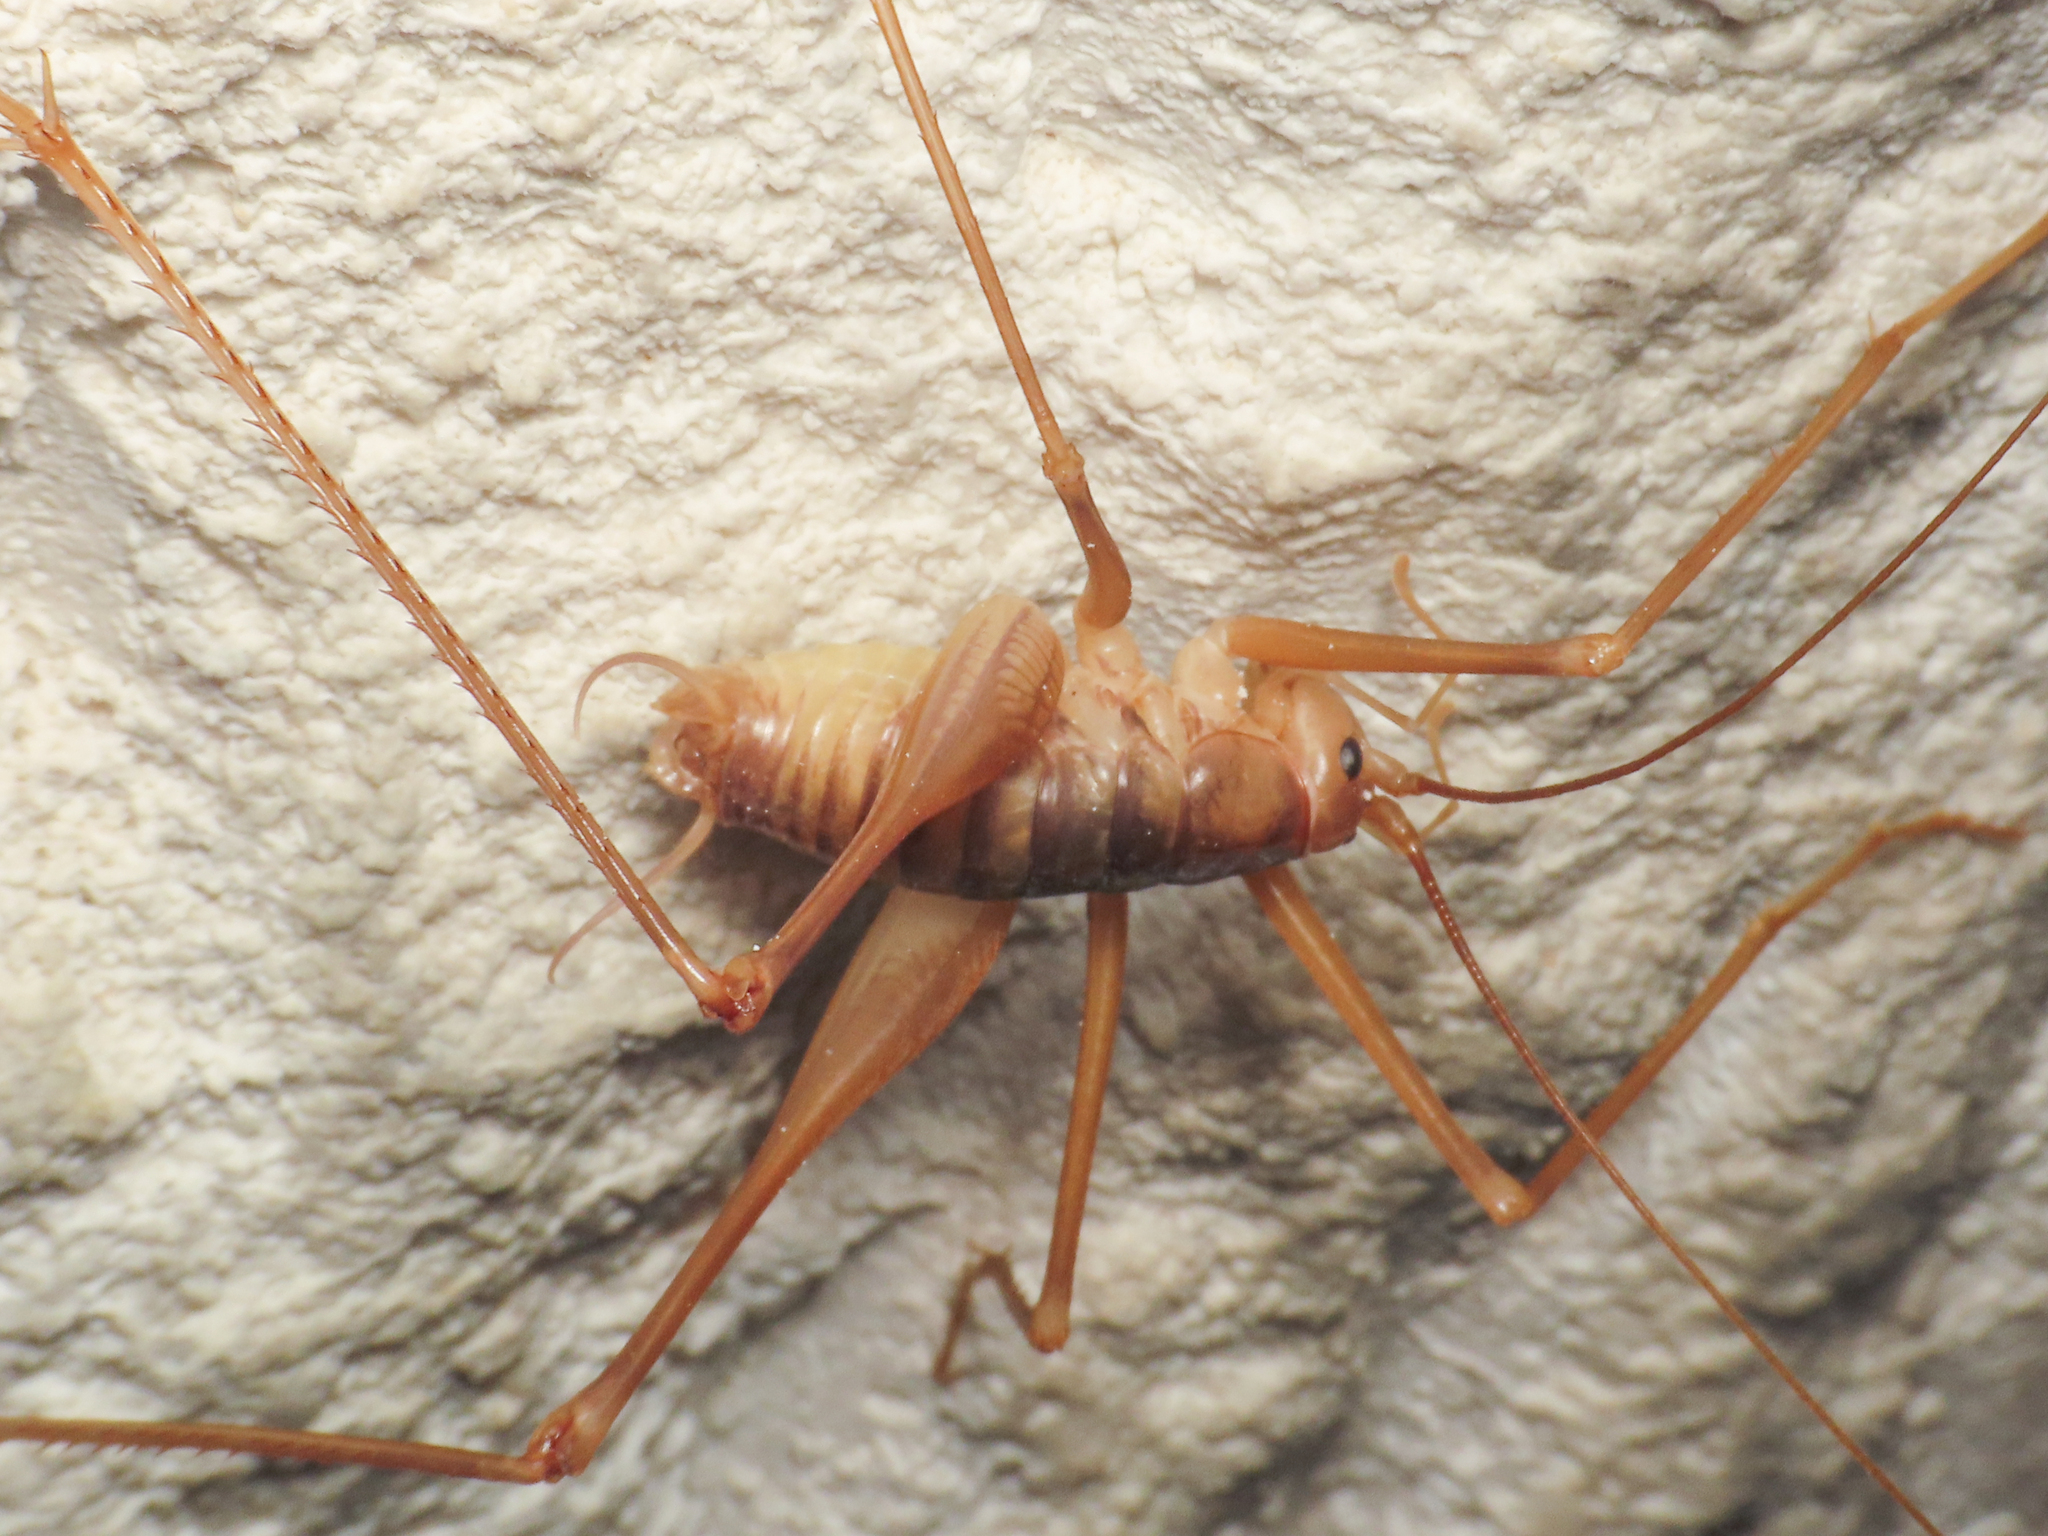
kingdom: Animalia
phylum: Arthropoda
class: Insecta
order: Orthoptera
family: Rhaphidophoridae
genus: Dolichopoda
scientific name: Dolichopoda laetitiae
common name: Laetitia's cave cricket
